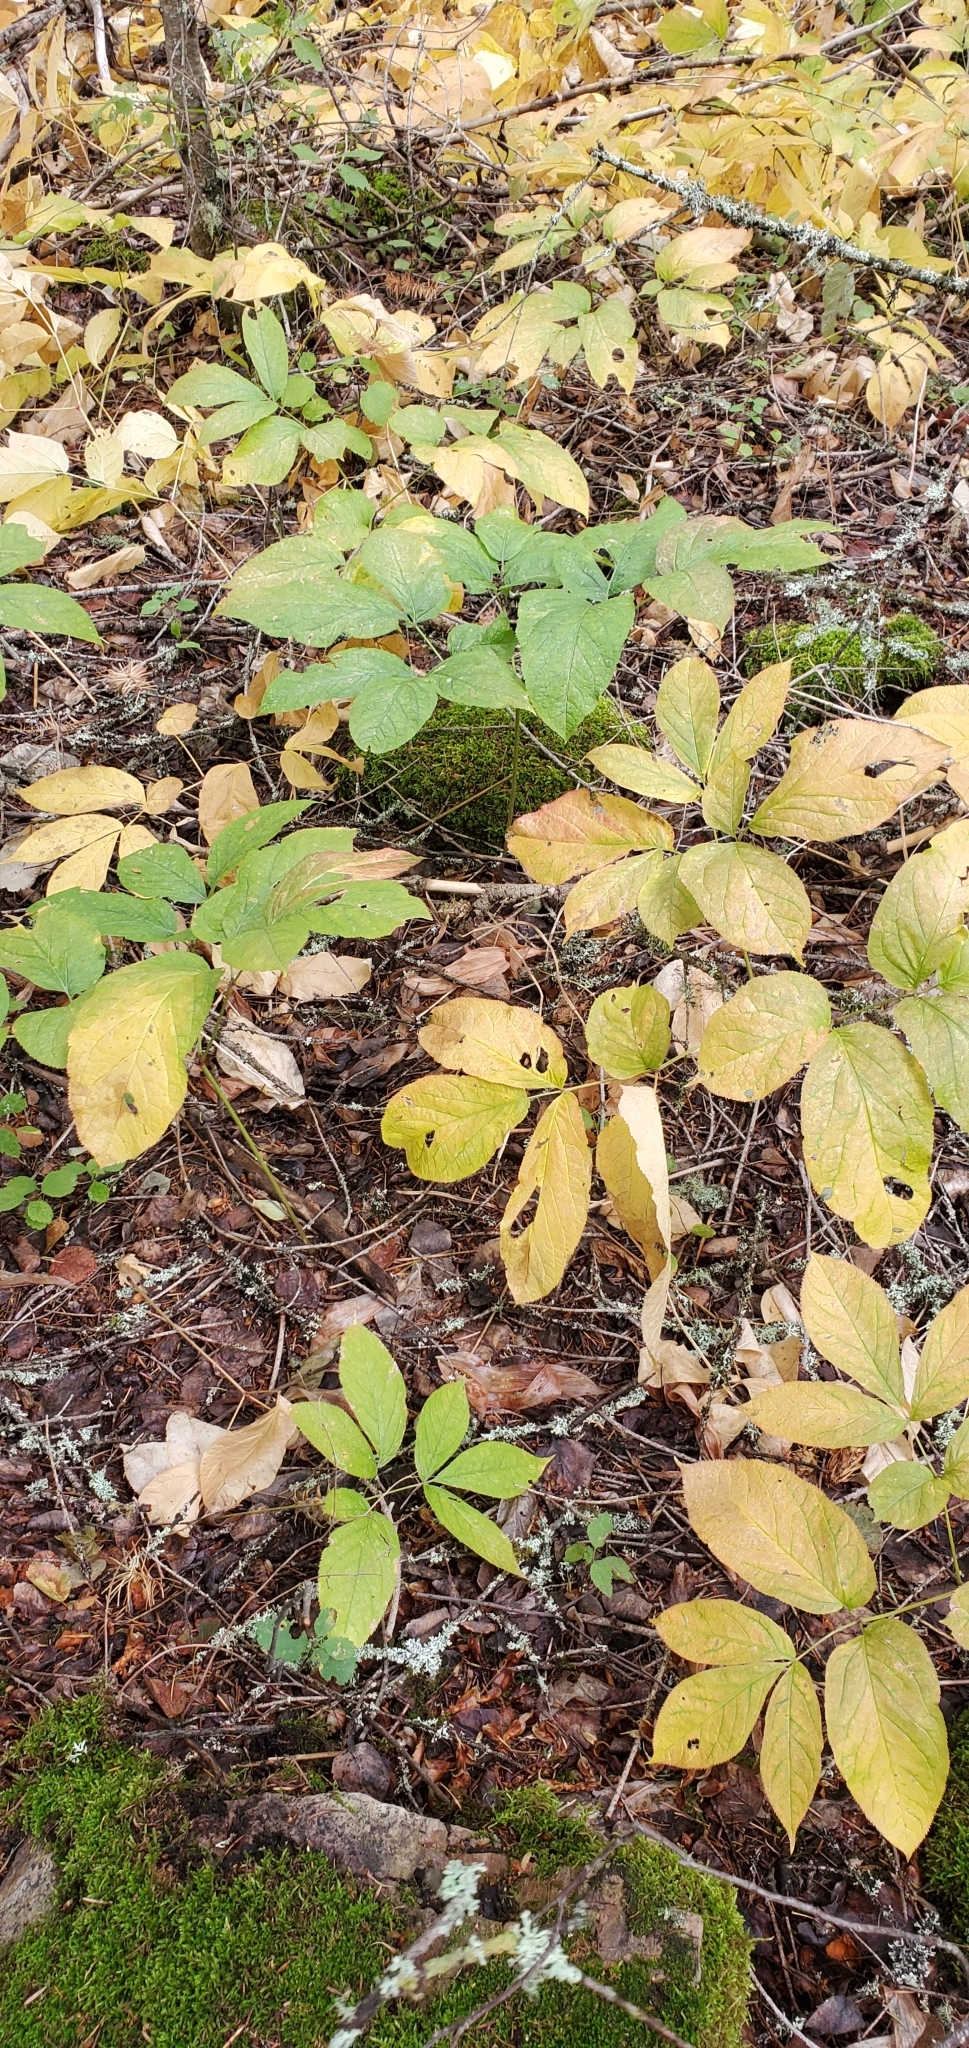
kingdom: Plantae
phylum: Tracheophyta
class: Magnoliopsida
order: Apiales
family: Araliaceae
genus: Aralia
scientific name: Aralia nudicaulis
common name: Wild sarsaparilla
